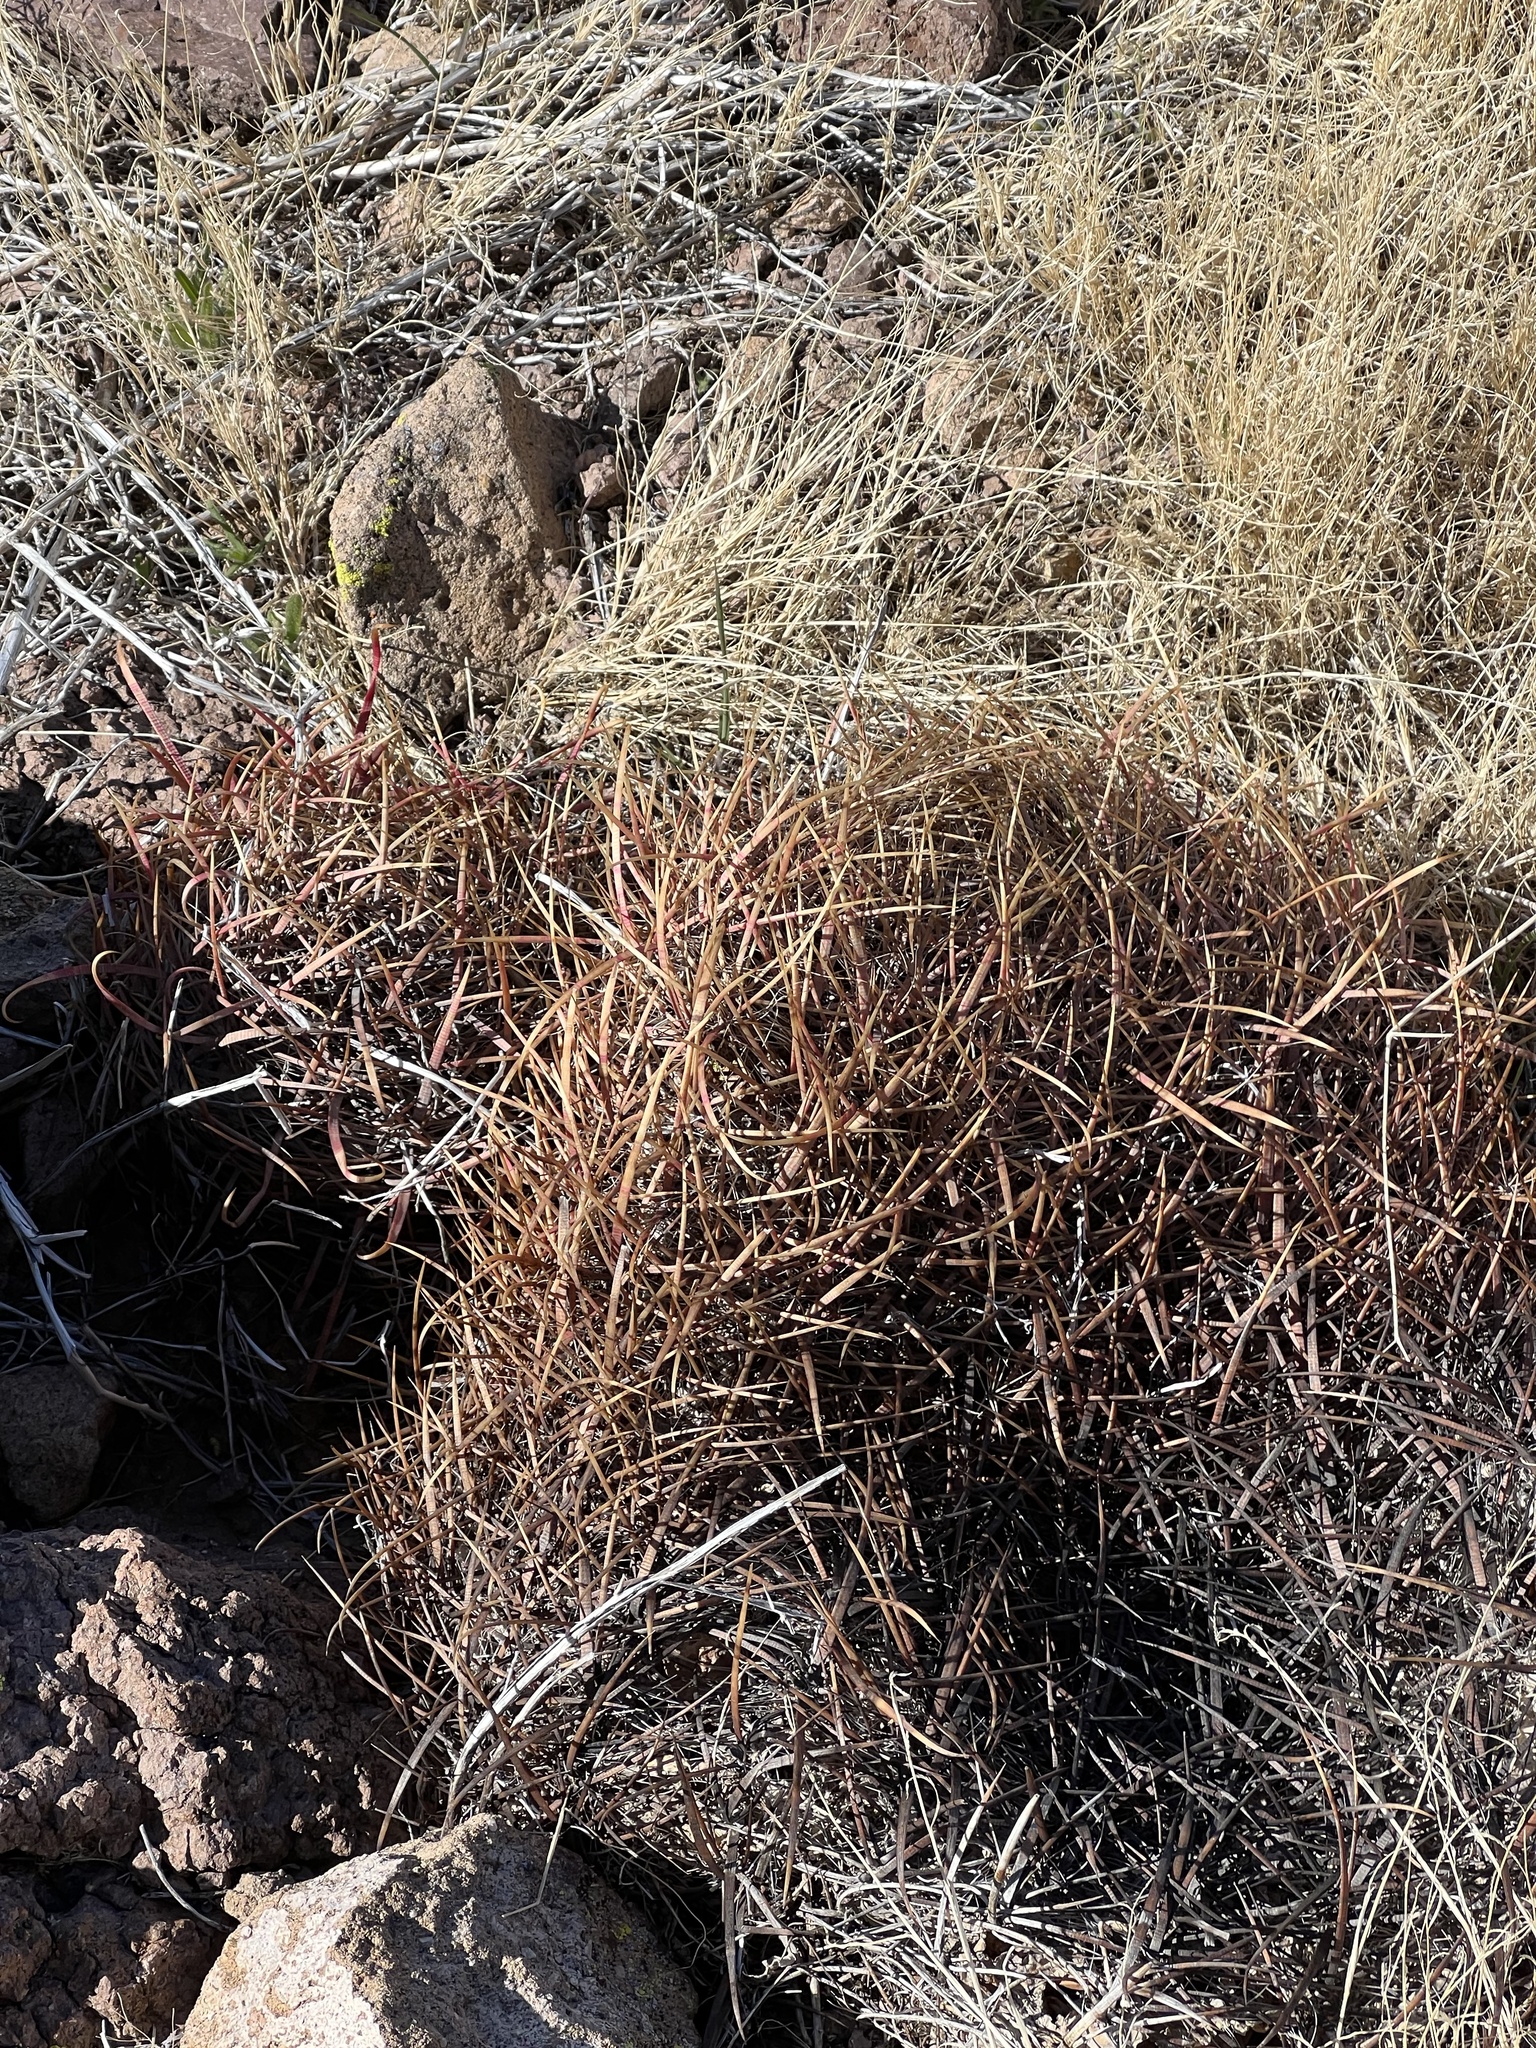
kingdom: Plantae
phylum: Tracheophyta
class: Magnoliopsida
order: Caryophyllales
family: Cactaceae
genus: Ferocactus
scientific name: Ferocactus cylindraceus
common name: California barrel cactus
